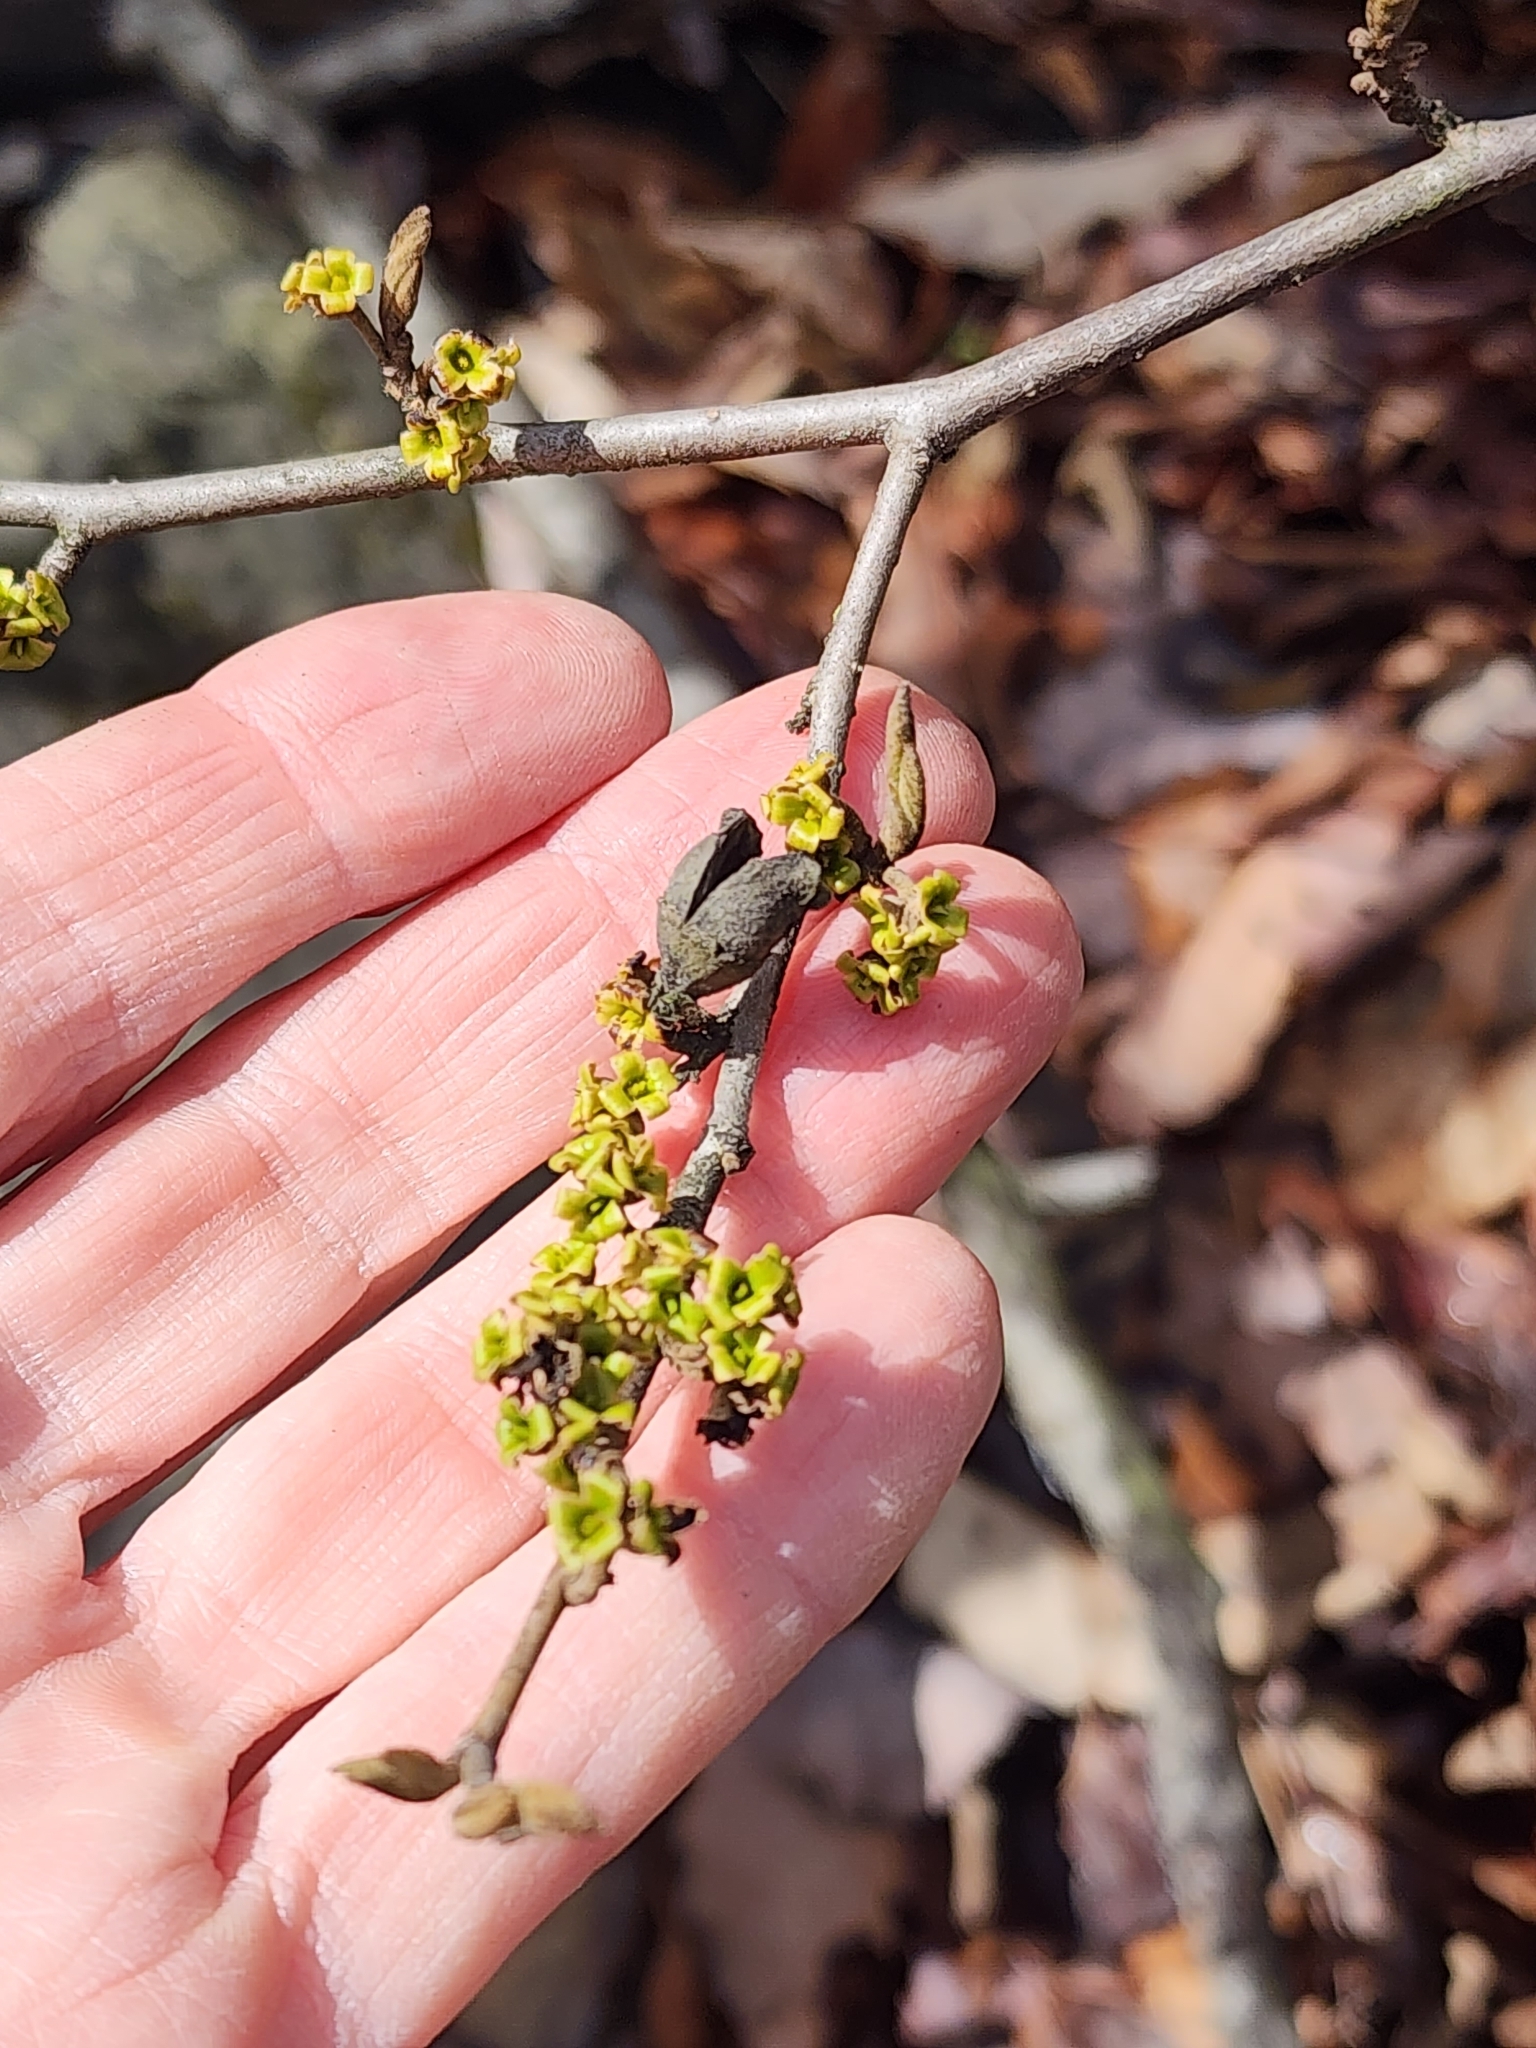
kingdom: Plantae
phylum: Tracheophyta
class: Magnoliopsida
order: Saxifragales
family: Hamamelidaceae
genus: Hamamelis
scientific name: Hamamelis virginiana
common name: Witch-hazel
